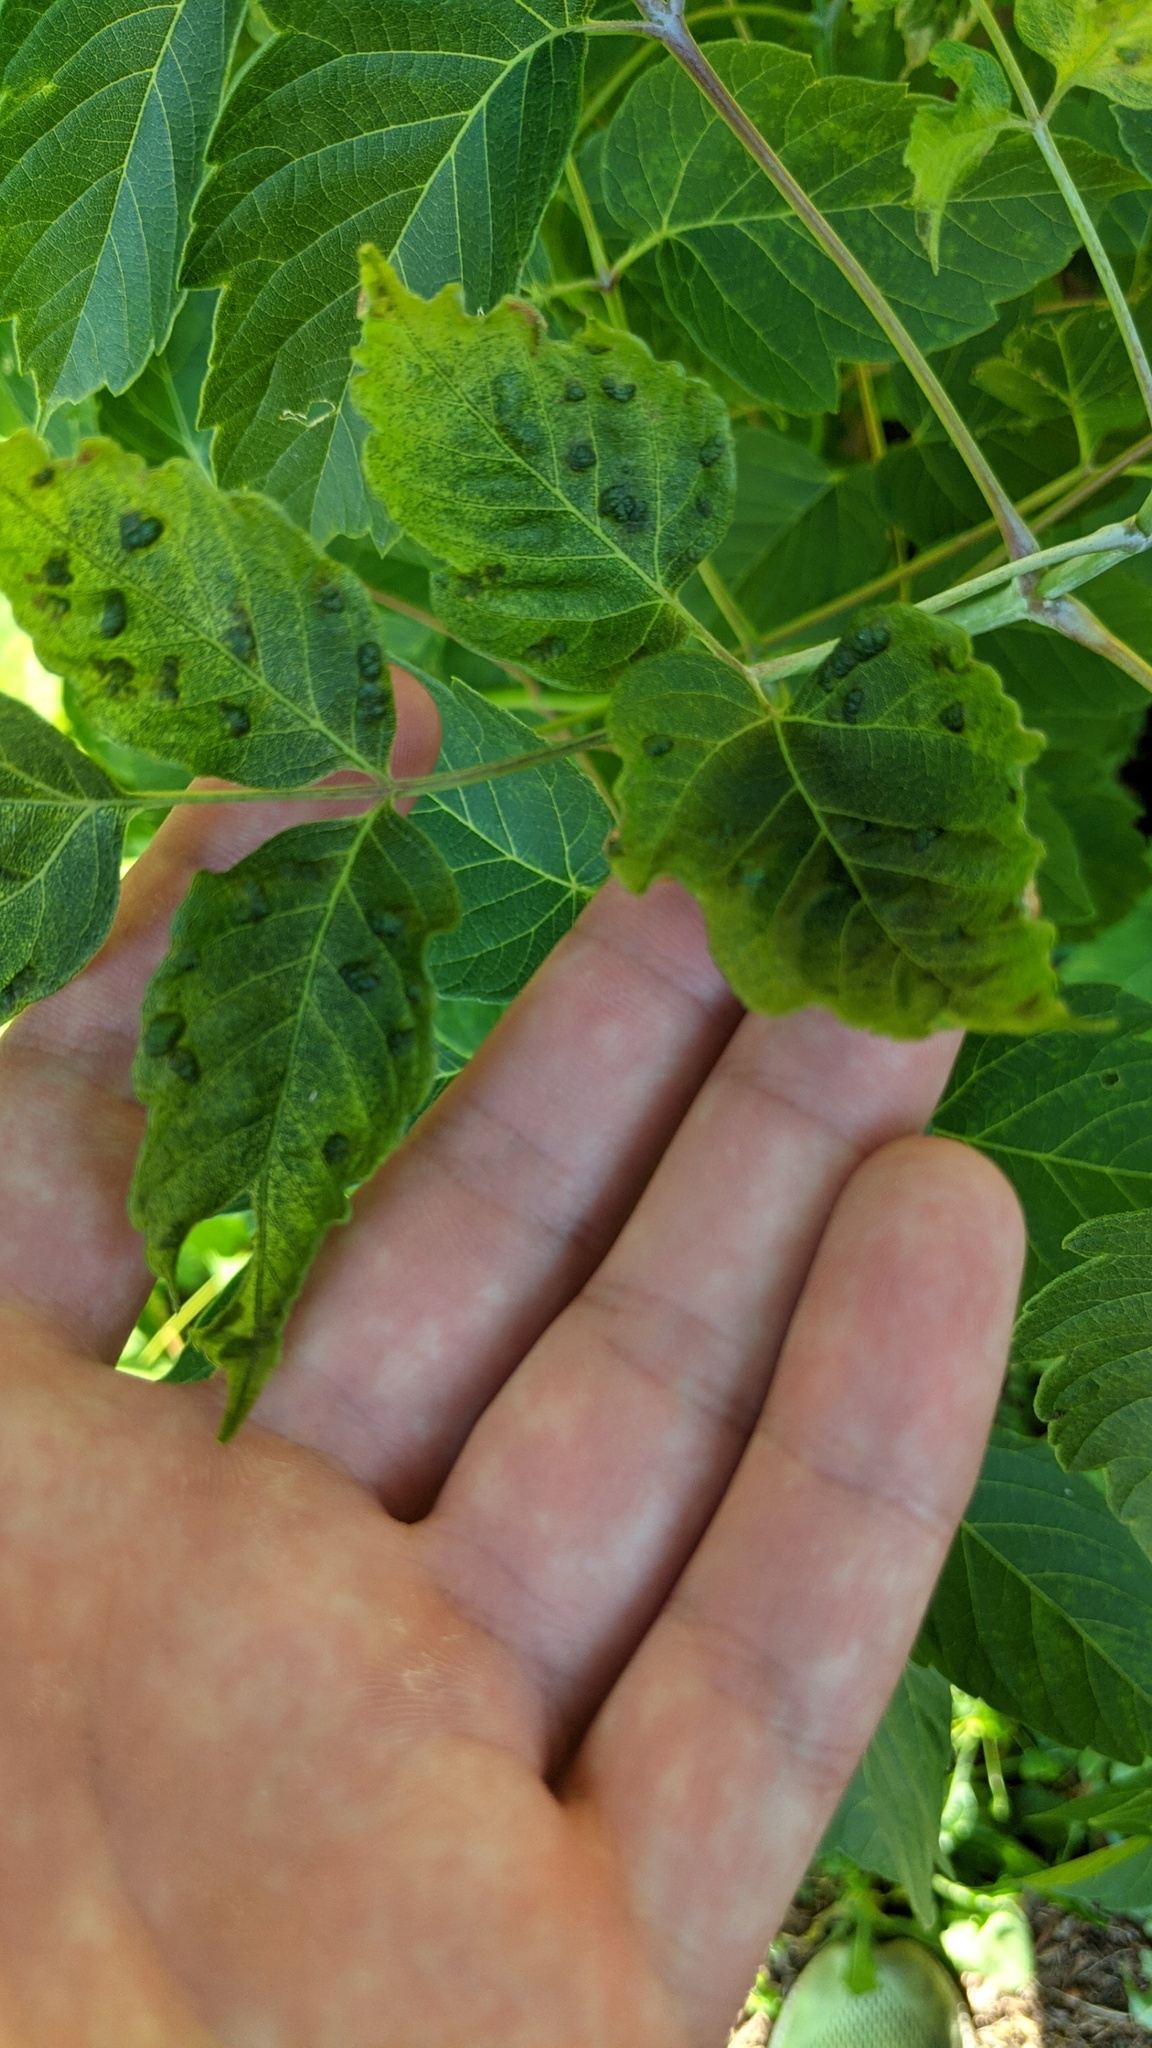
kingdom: Animalia
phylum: Arthropoda
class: Arachnida
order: Trombidiformes
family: Eriophyidae
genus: Aceria
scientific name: Aceria
